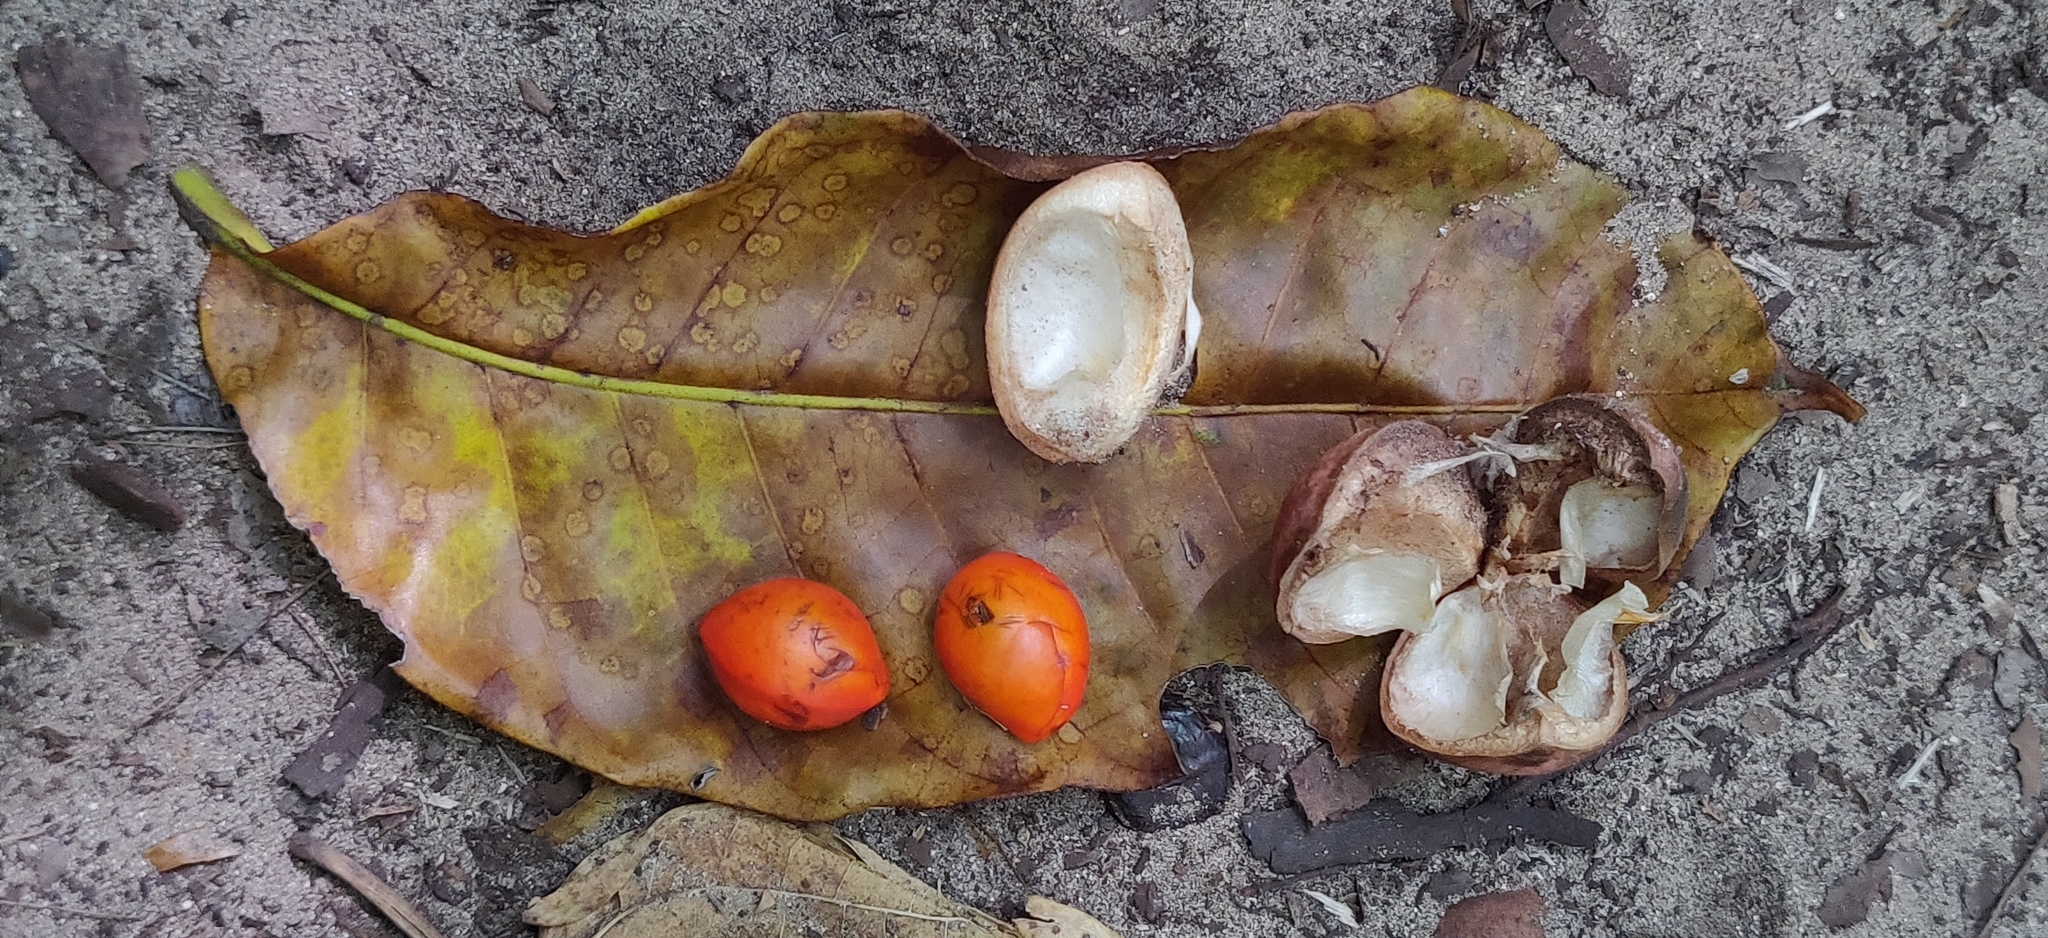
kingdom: Plantae
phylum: Tracheophyta
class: Magnoliopsida
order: Sapindales
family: Meliaceae
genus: Aphanamixis
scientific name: Aphanamixis polystachya
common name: Pithraj tree
